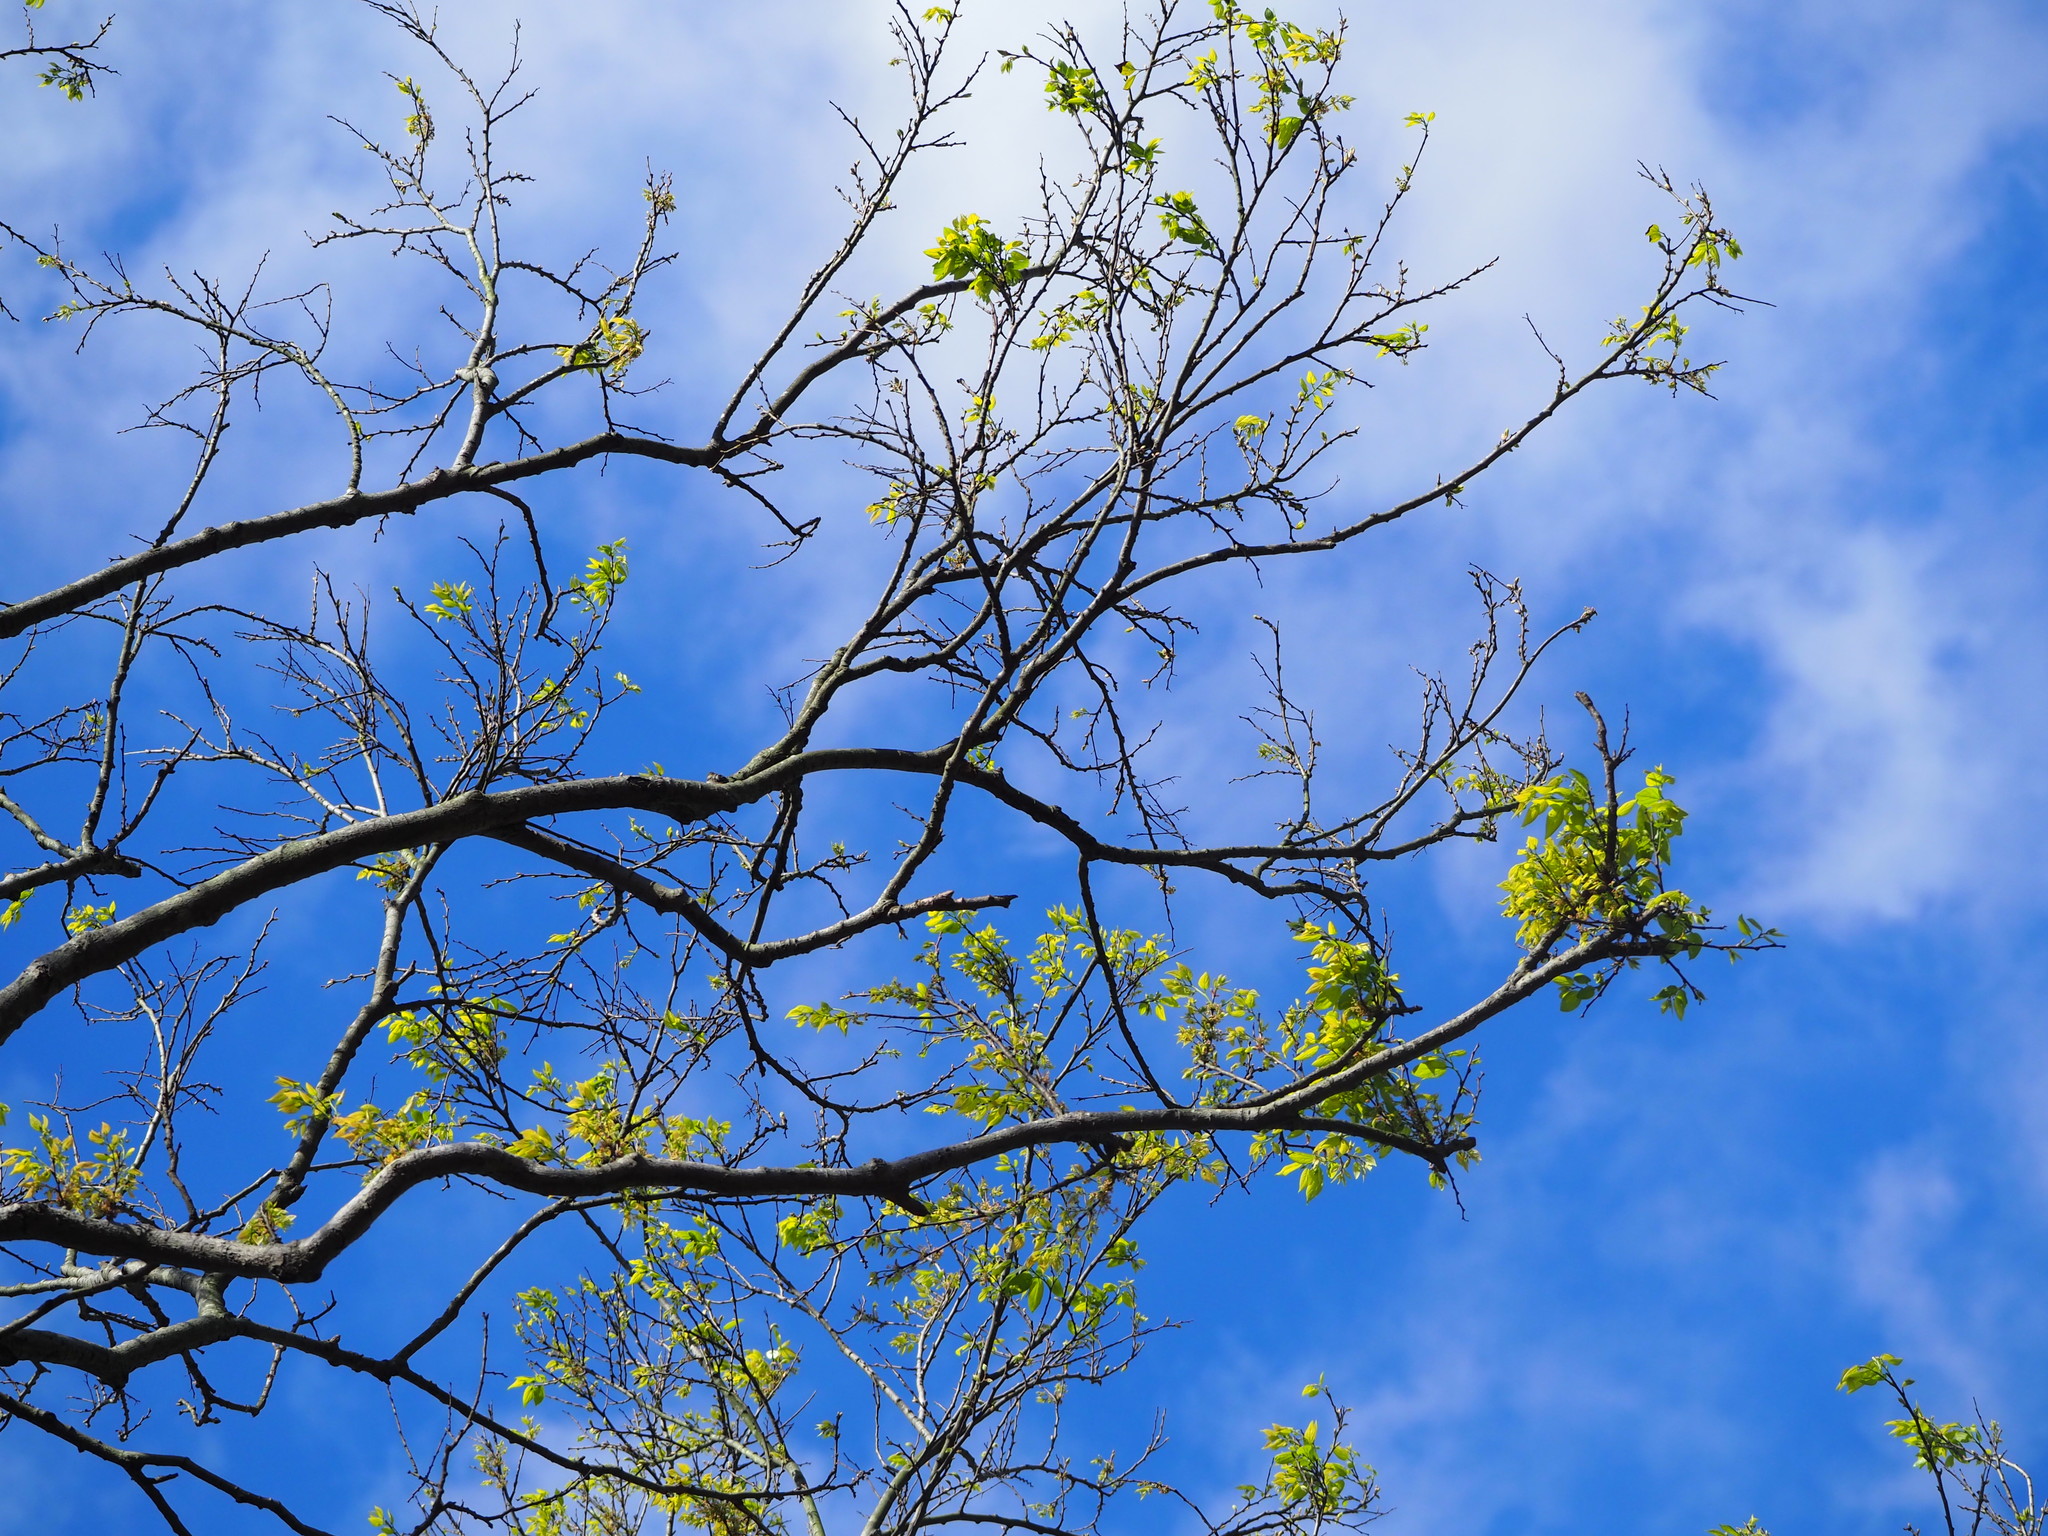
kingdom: Plantae
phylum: Tracheophyta
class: Magnoliopsida
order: Rosales
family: Cannabaceae
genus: Celtis
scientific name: Celtis sinensis
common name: Chinese hackberry
